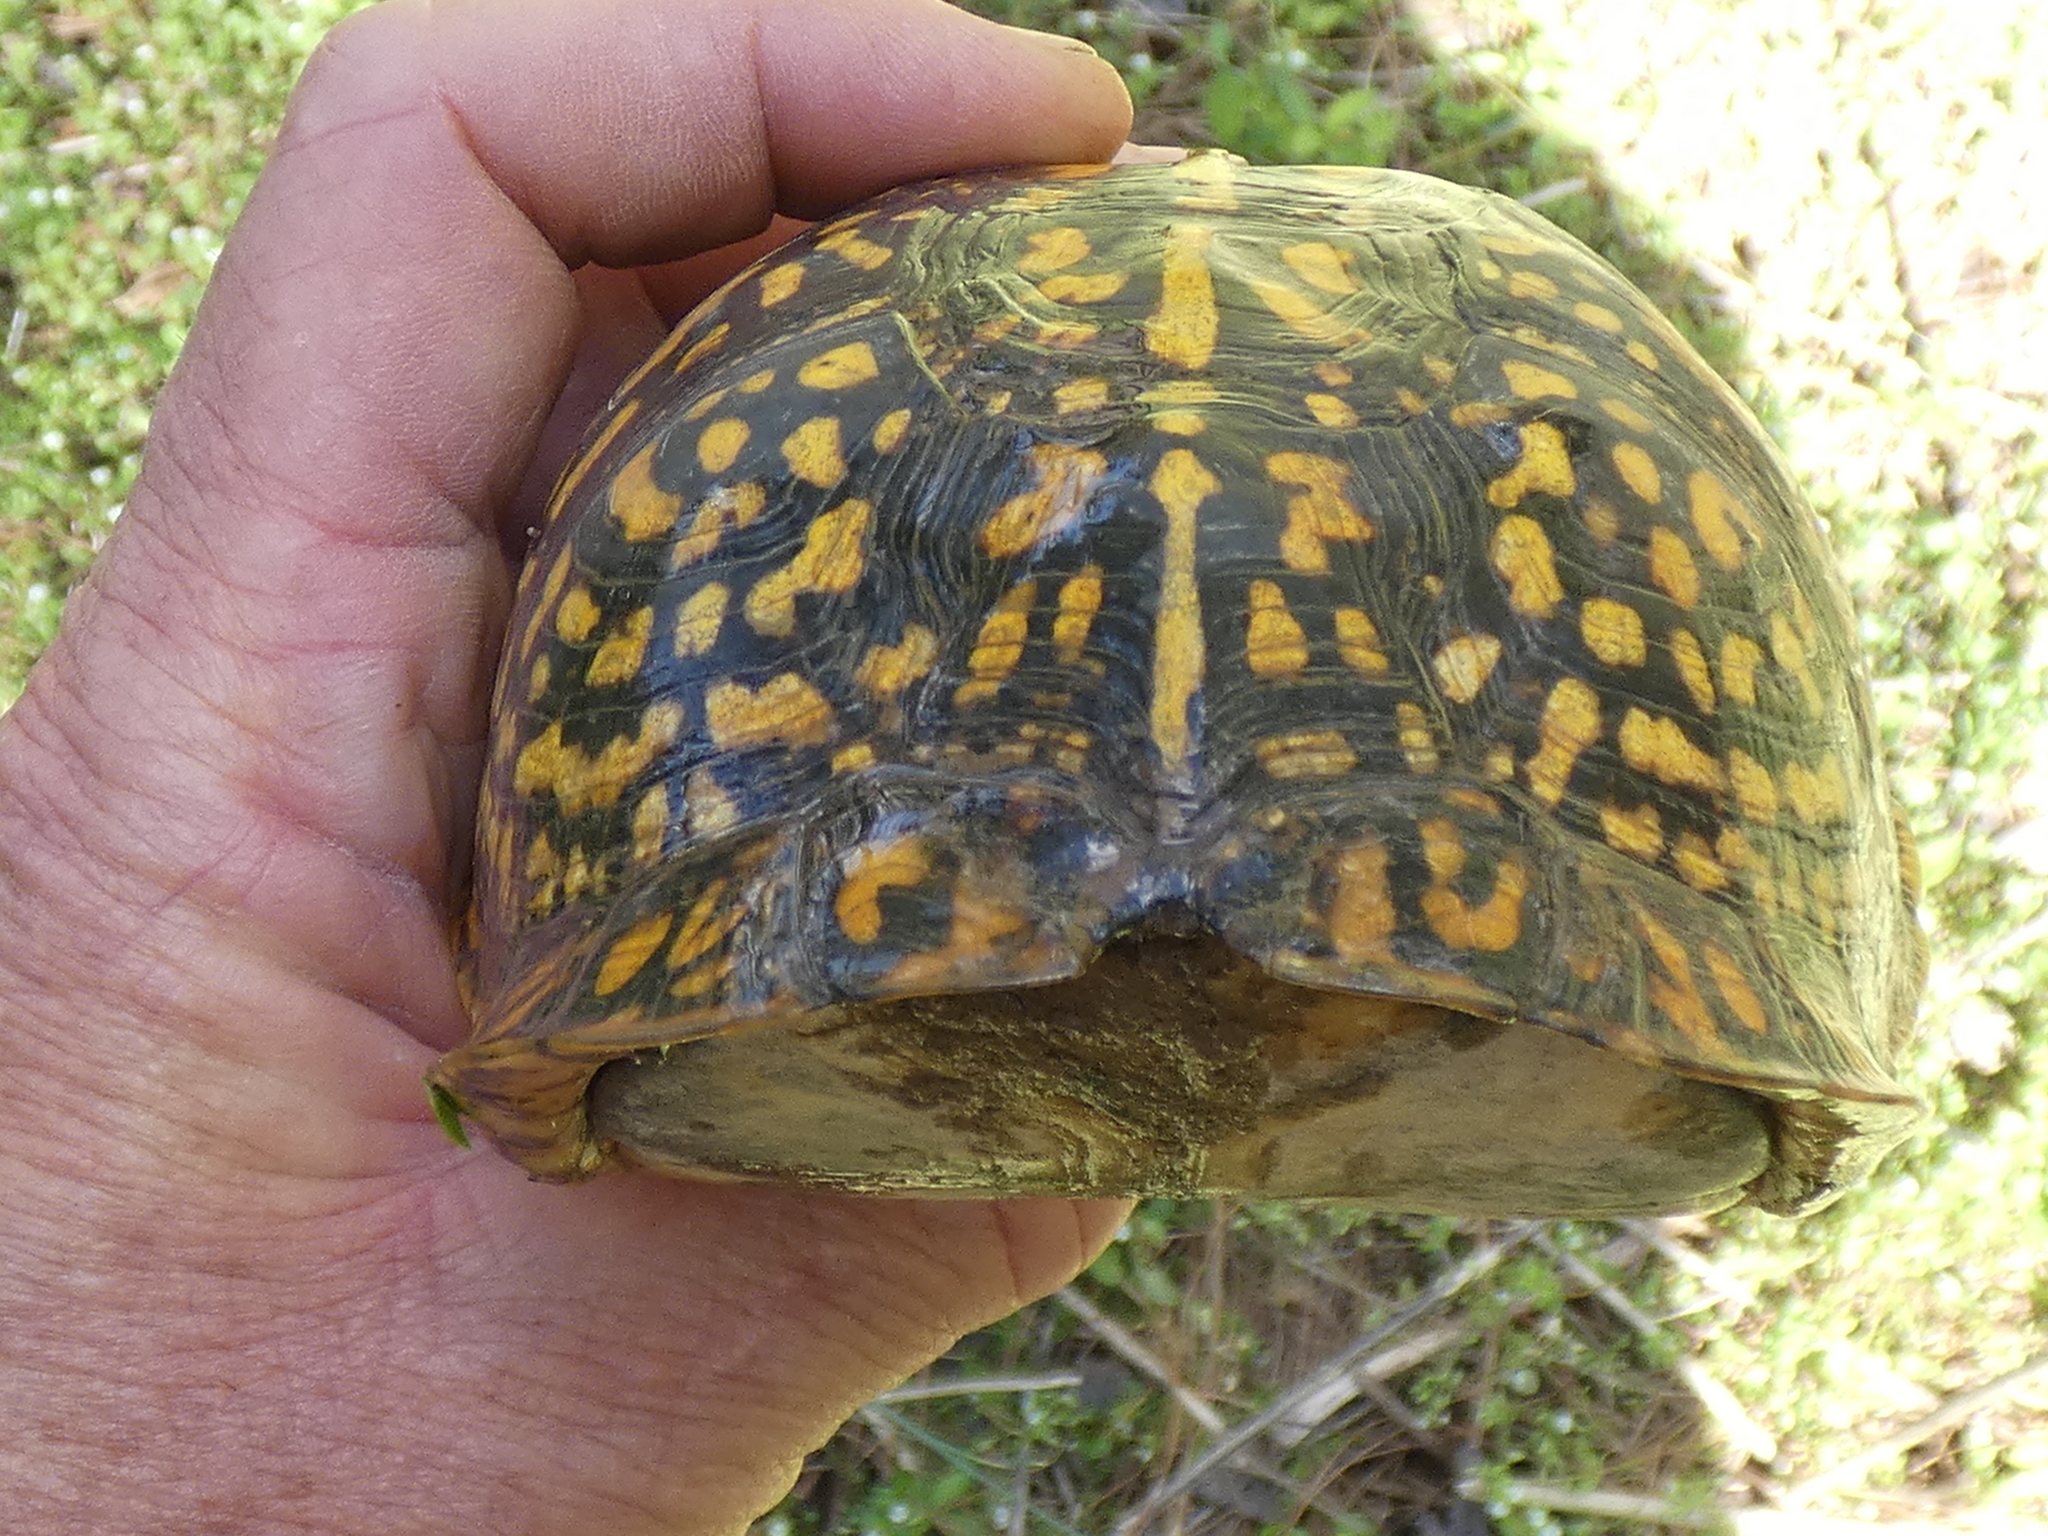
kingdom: Animalia
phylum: Chordata
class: Testudines
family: Emydidae
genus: Terrapene
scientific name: Terrapene carolina
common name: Common box turtle
